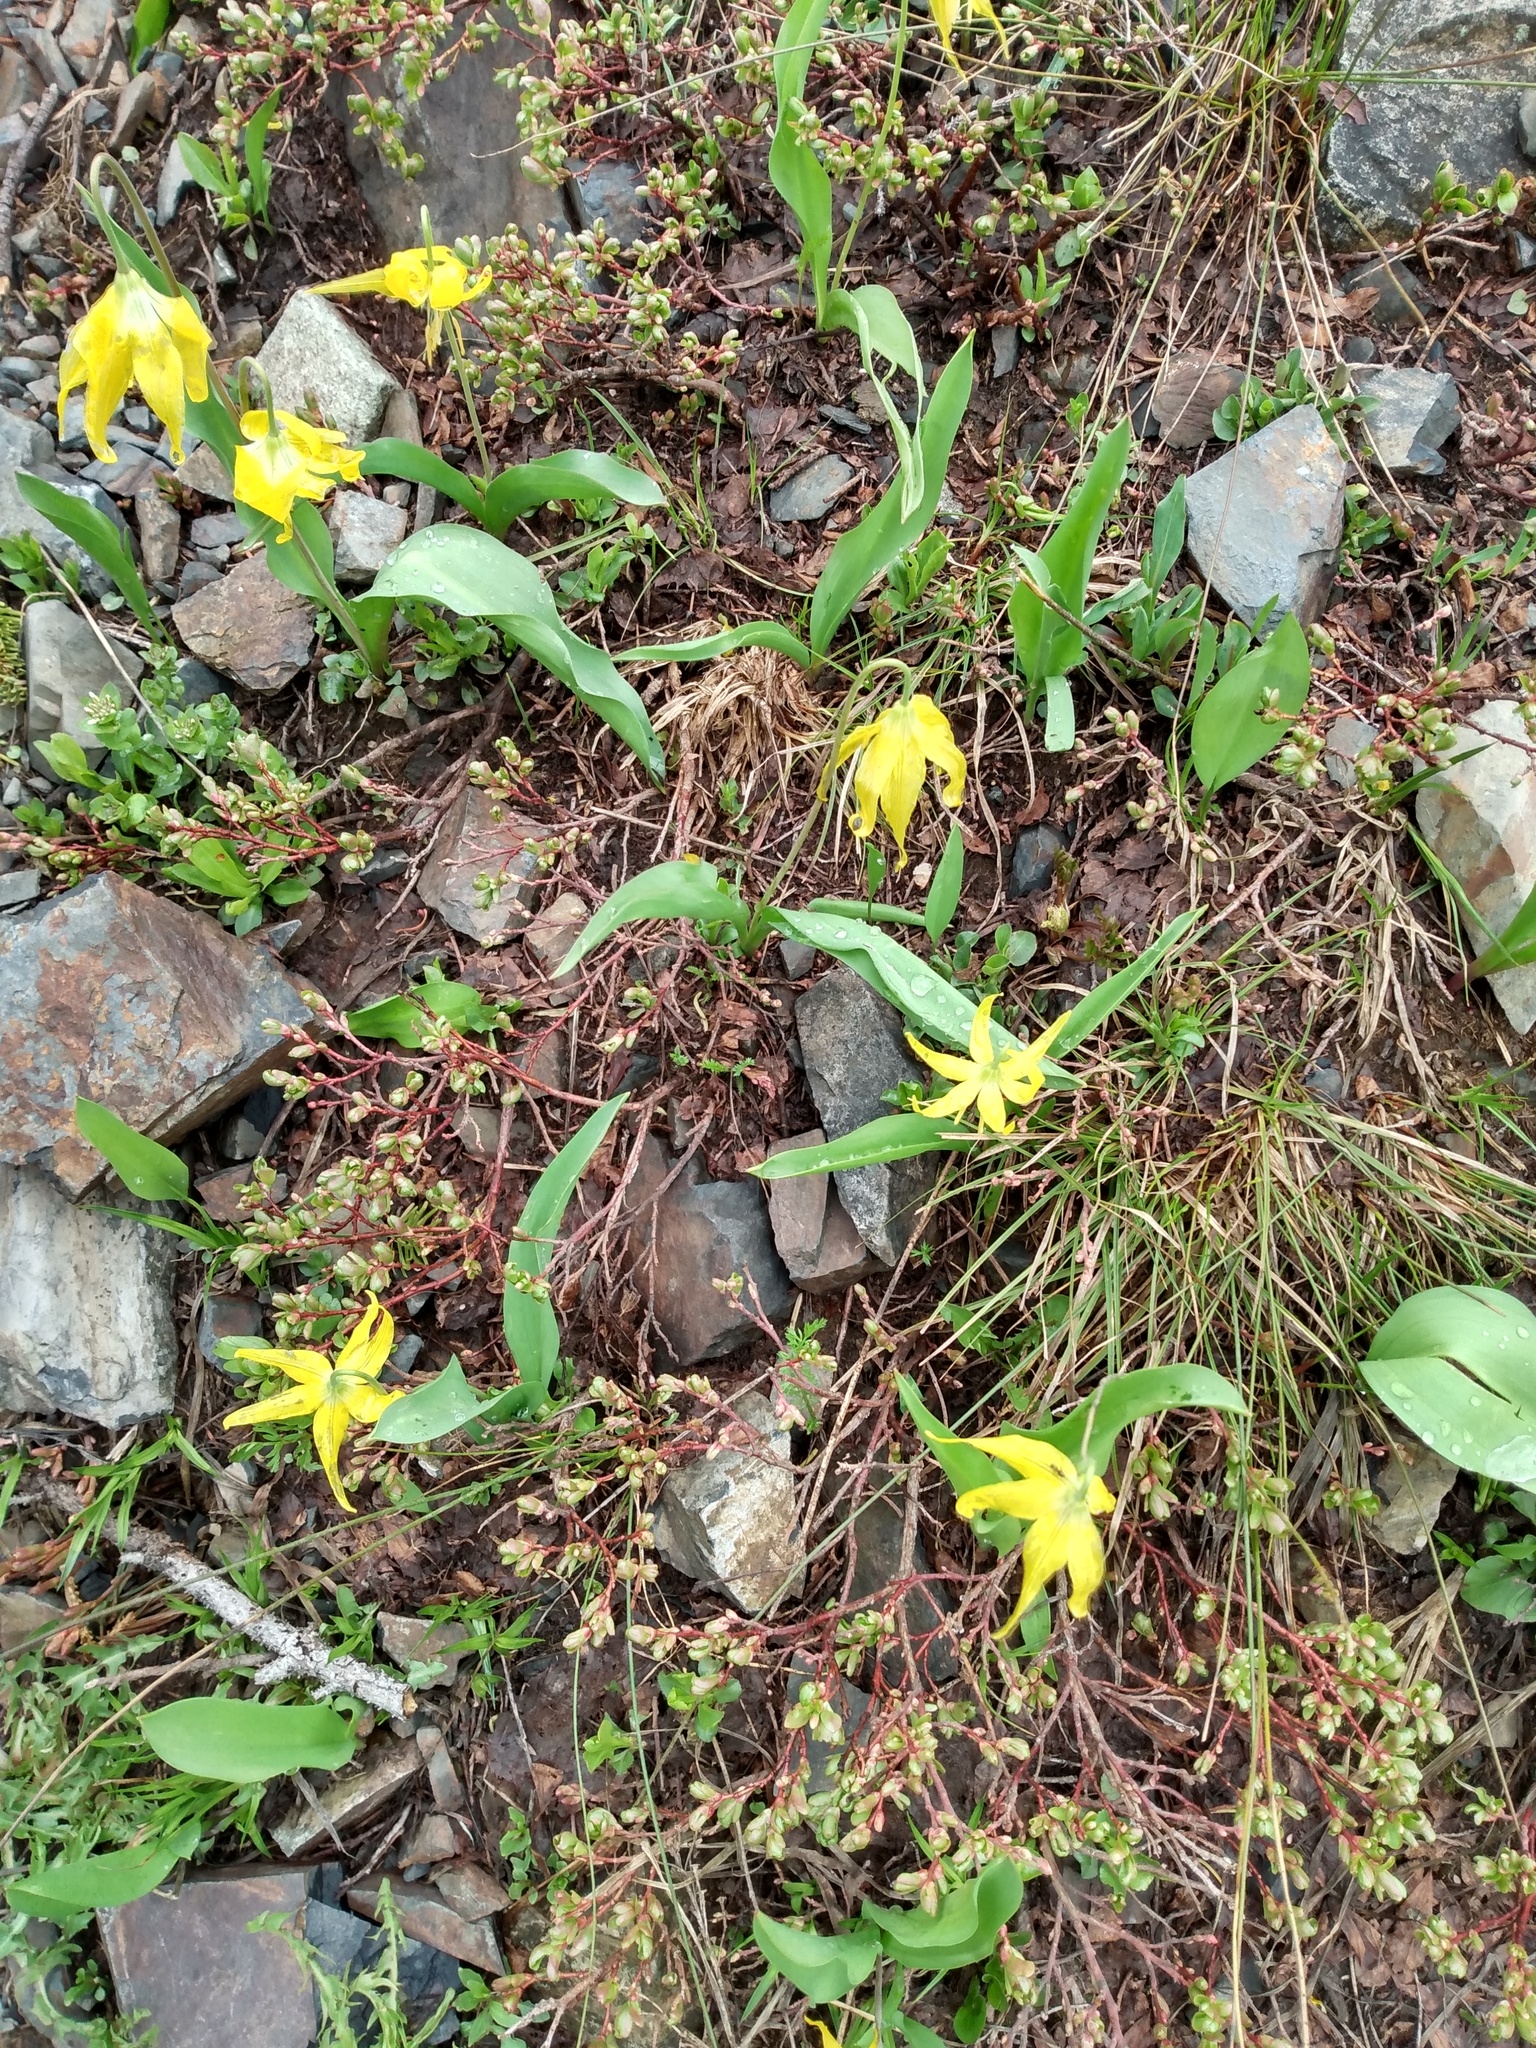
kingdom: Plantae
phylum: Tracheophyta
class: Liliopsida
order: Liliales
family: Liliaceae
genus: Erythronium
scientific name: Erythronium grandiflorum
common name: Avalanche-lily
